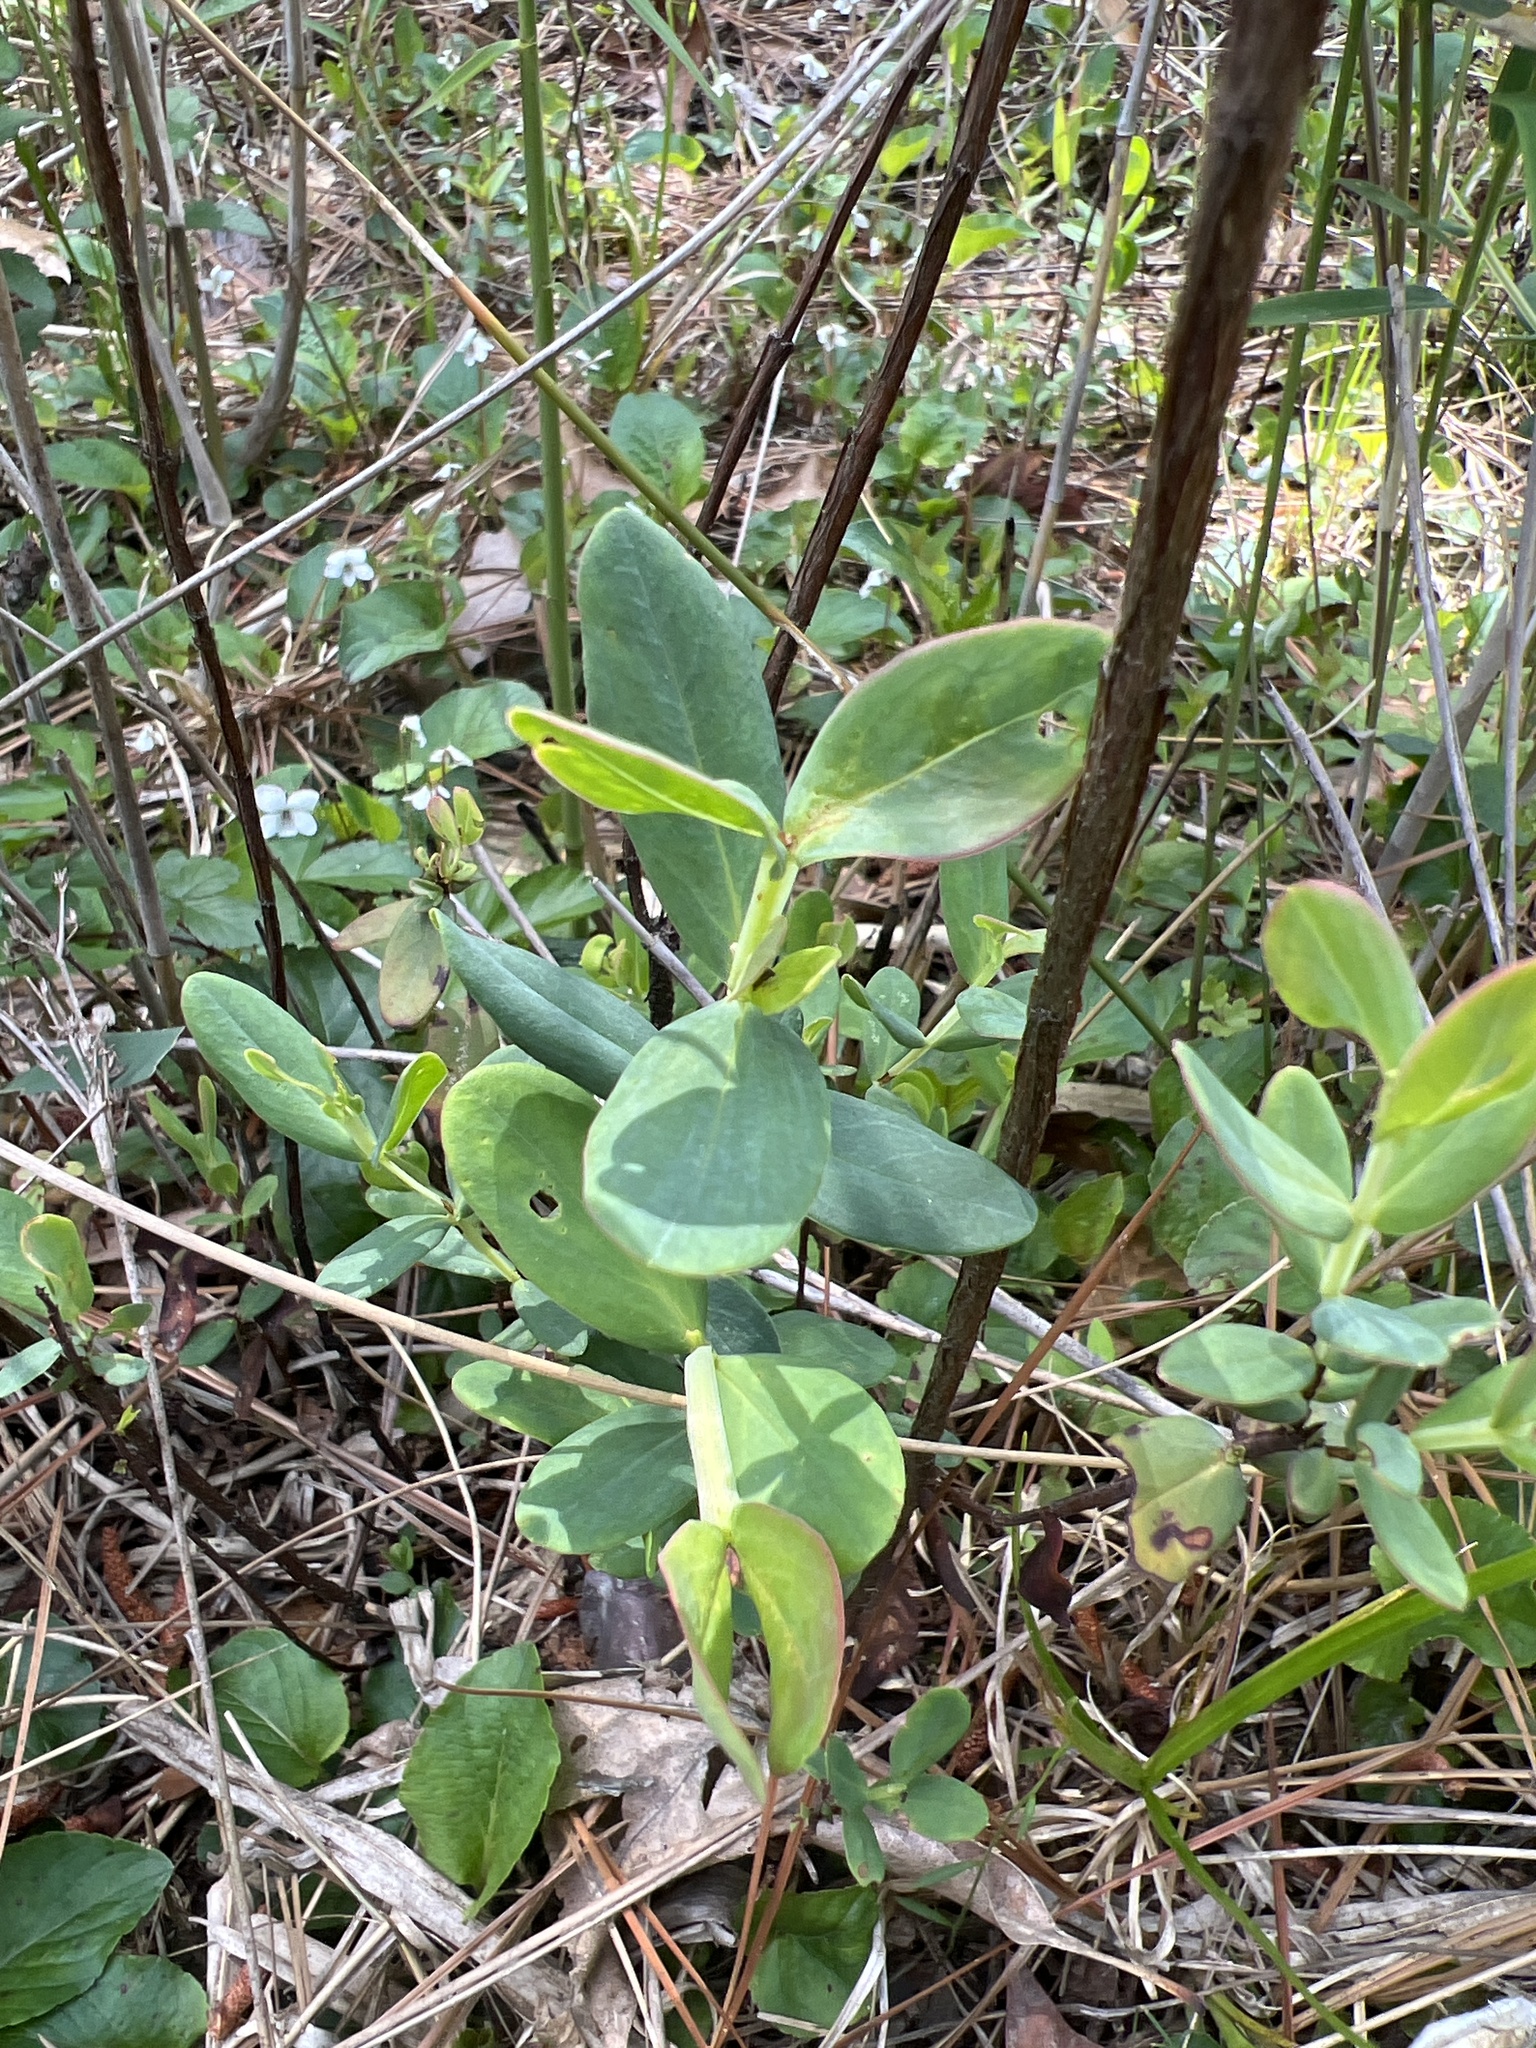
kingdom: Plantae
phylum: Tracheophyta
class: Magnoliopsida
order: Malpighiales
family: Hypericaceae
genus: Hypericum
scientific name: Hypericum crux-andreae
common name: St.-peter's-wort
